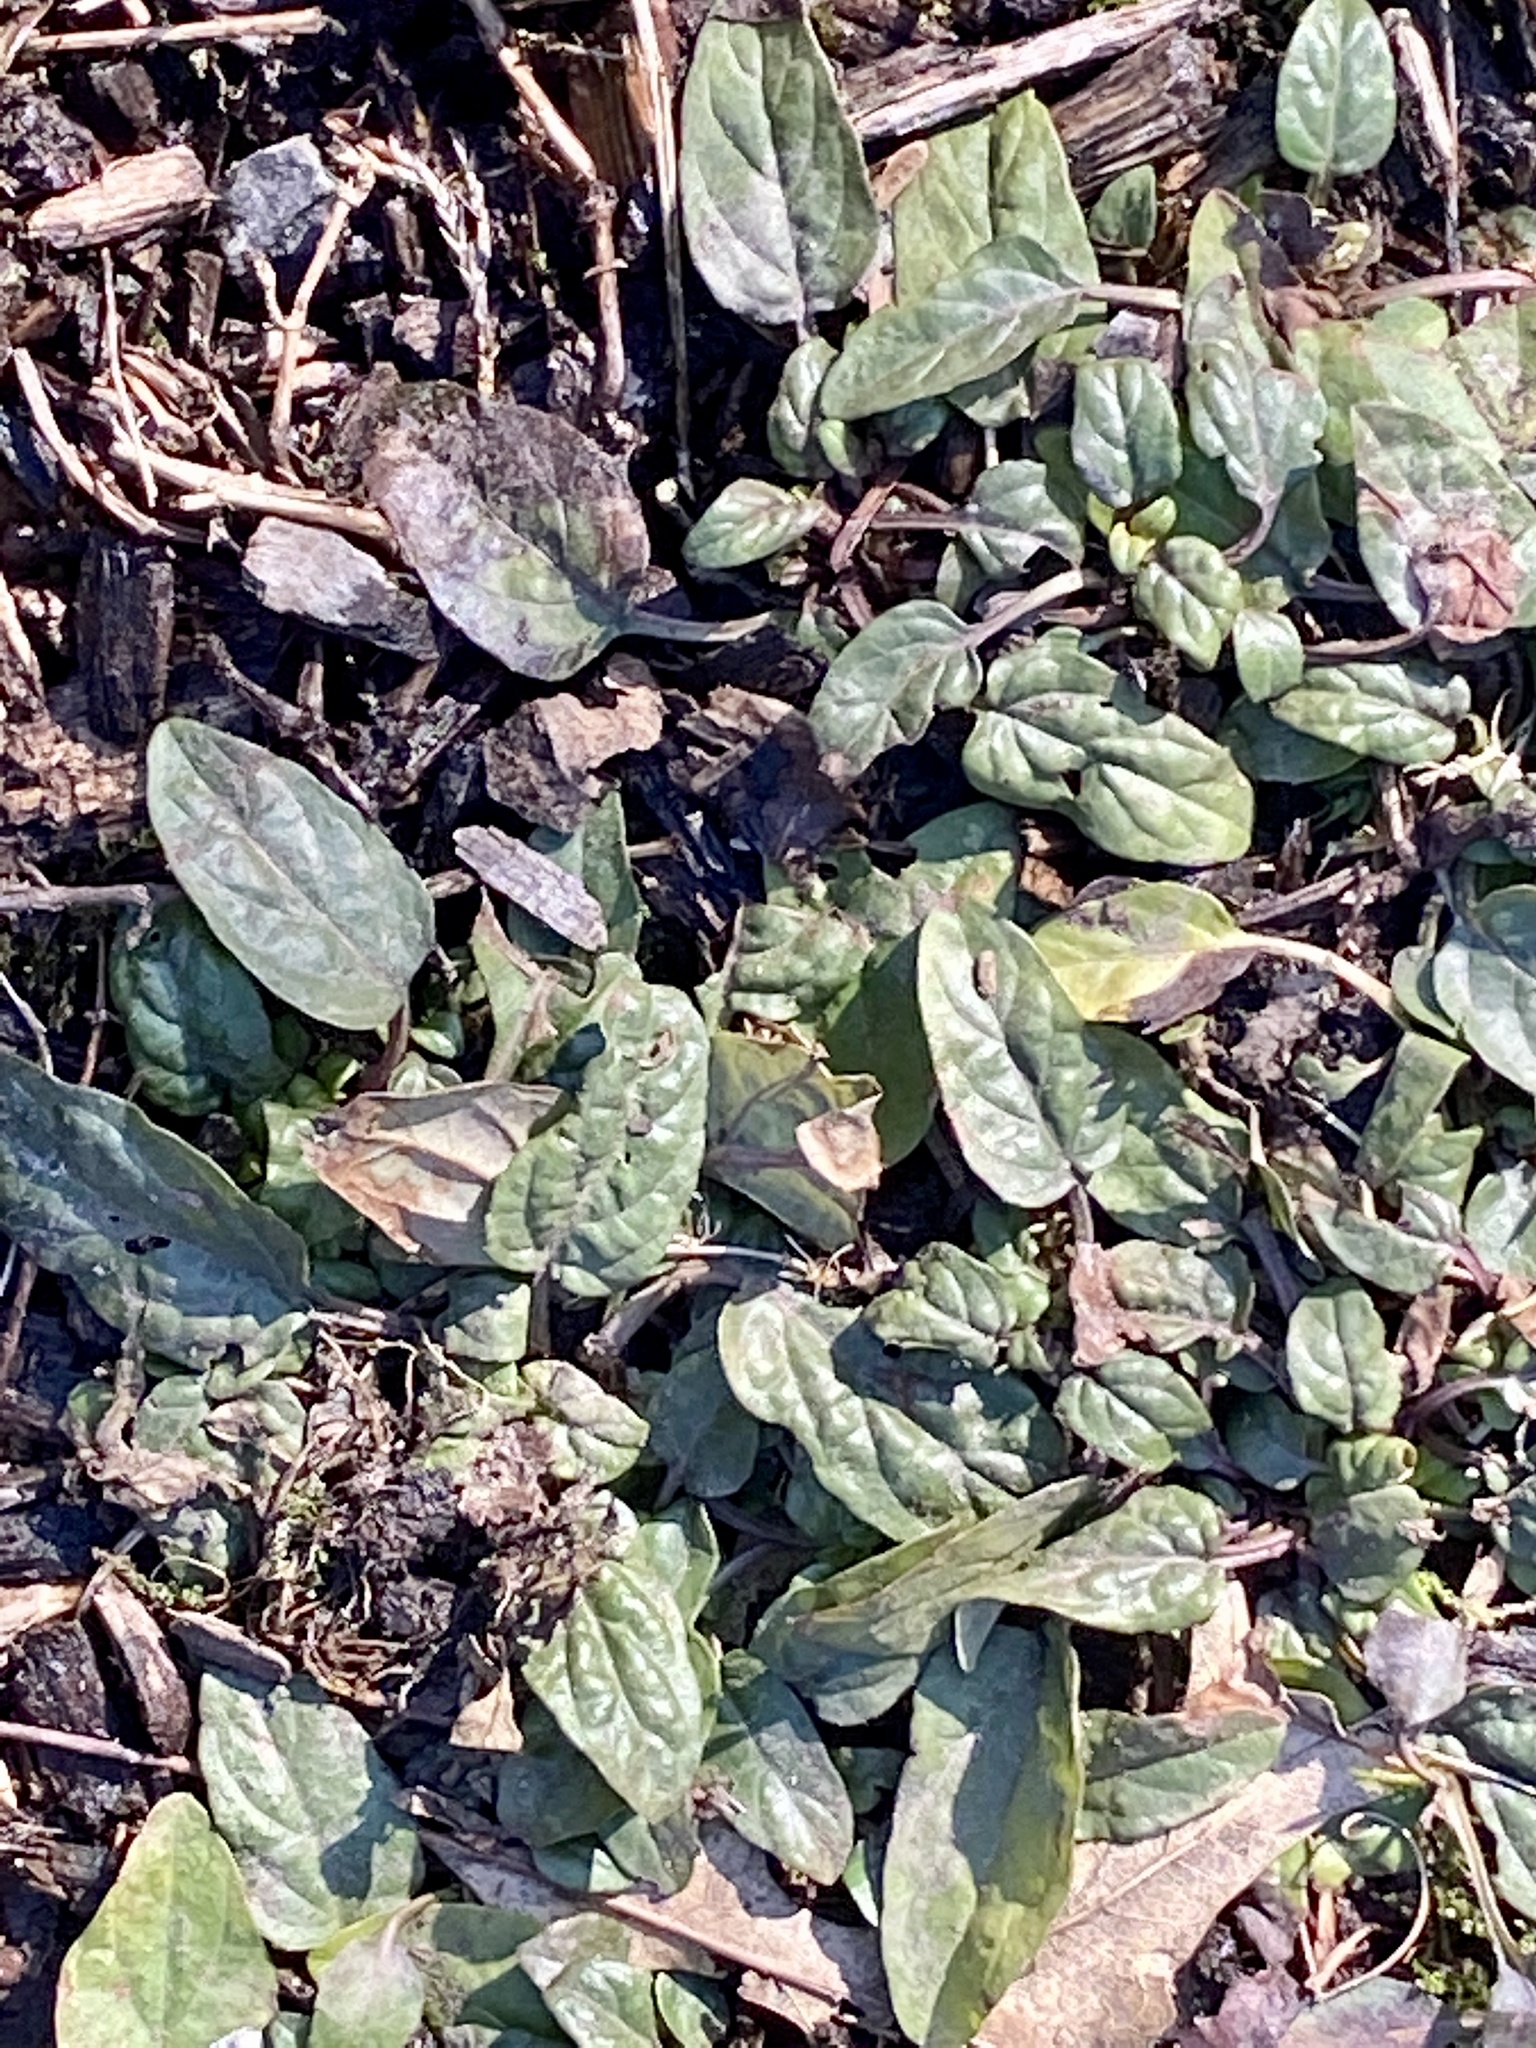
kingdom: Plantae
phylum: Tracheophyta
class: Magnoliopsida
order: Lamiales
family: Lamiaceae
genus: Prunella
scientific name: Prunella vulgaris
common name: Heal-all
